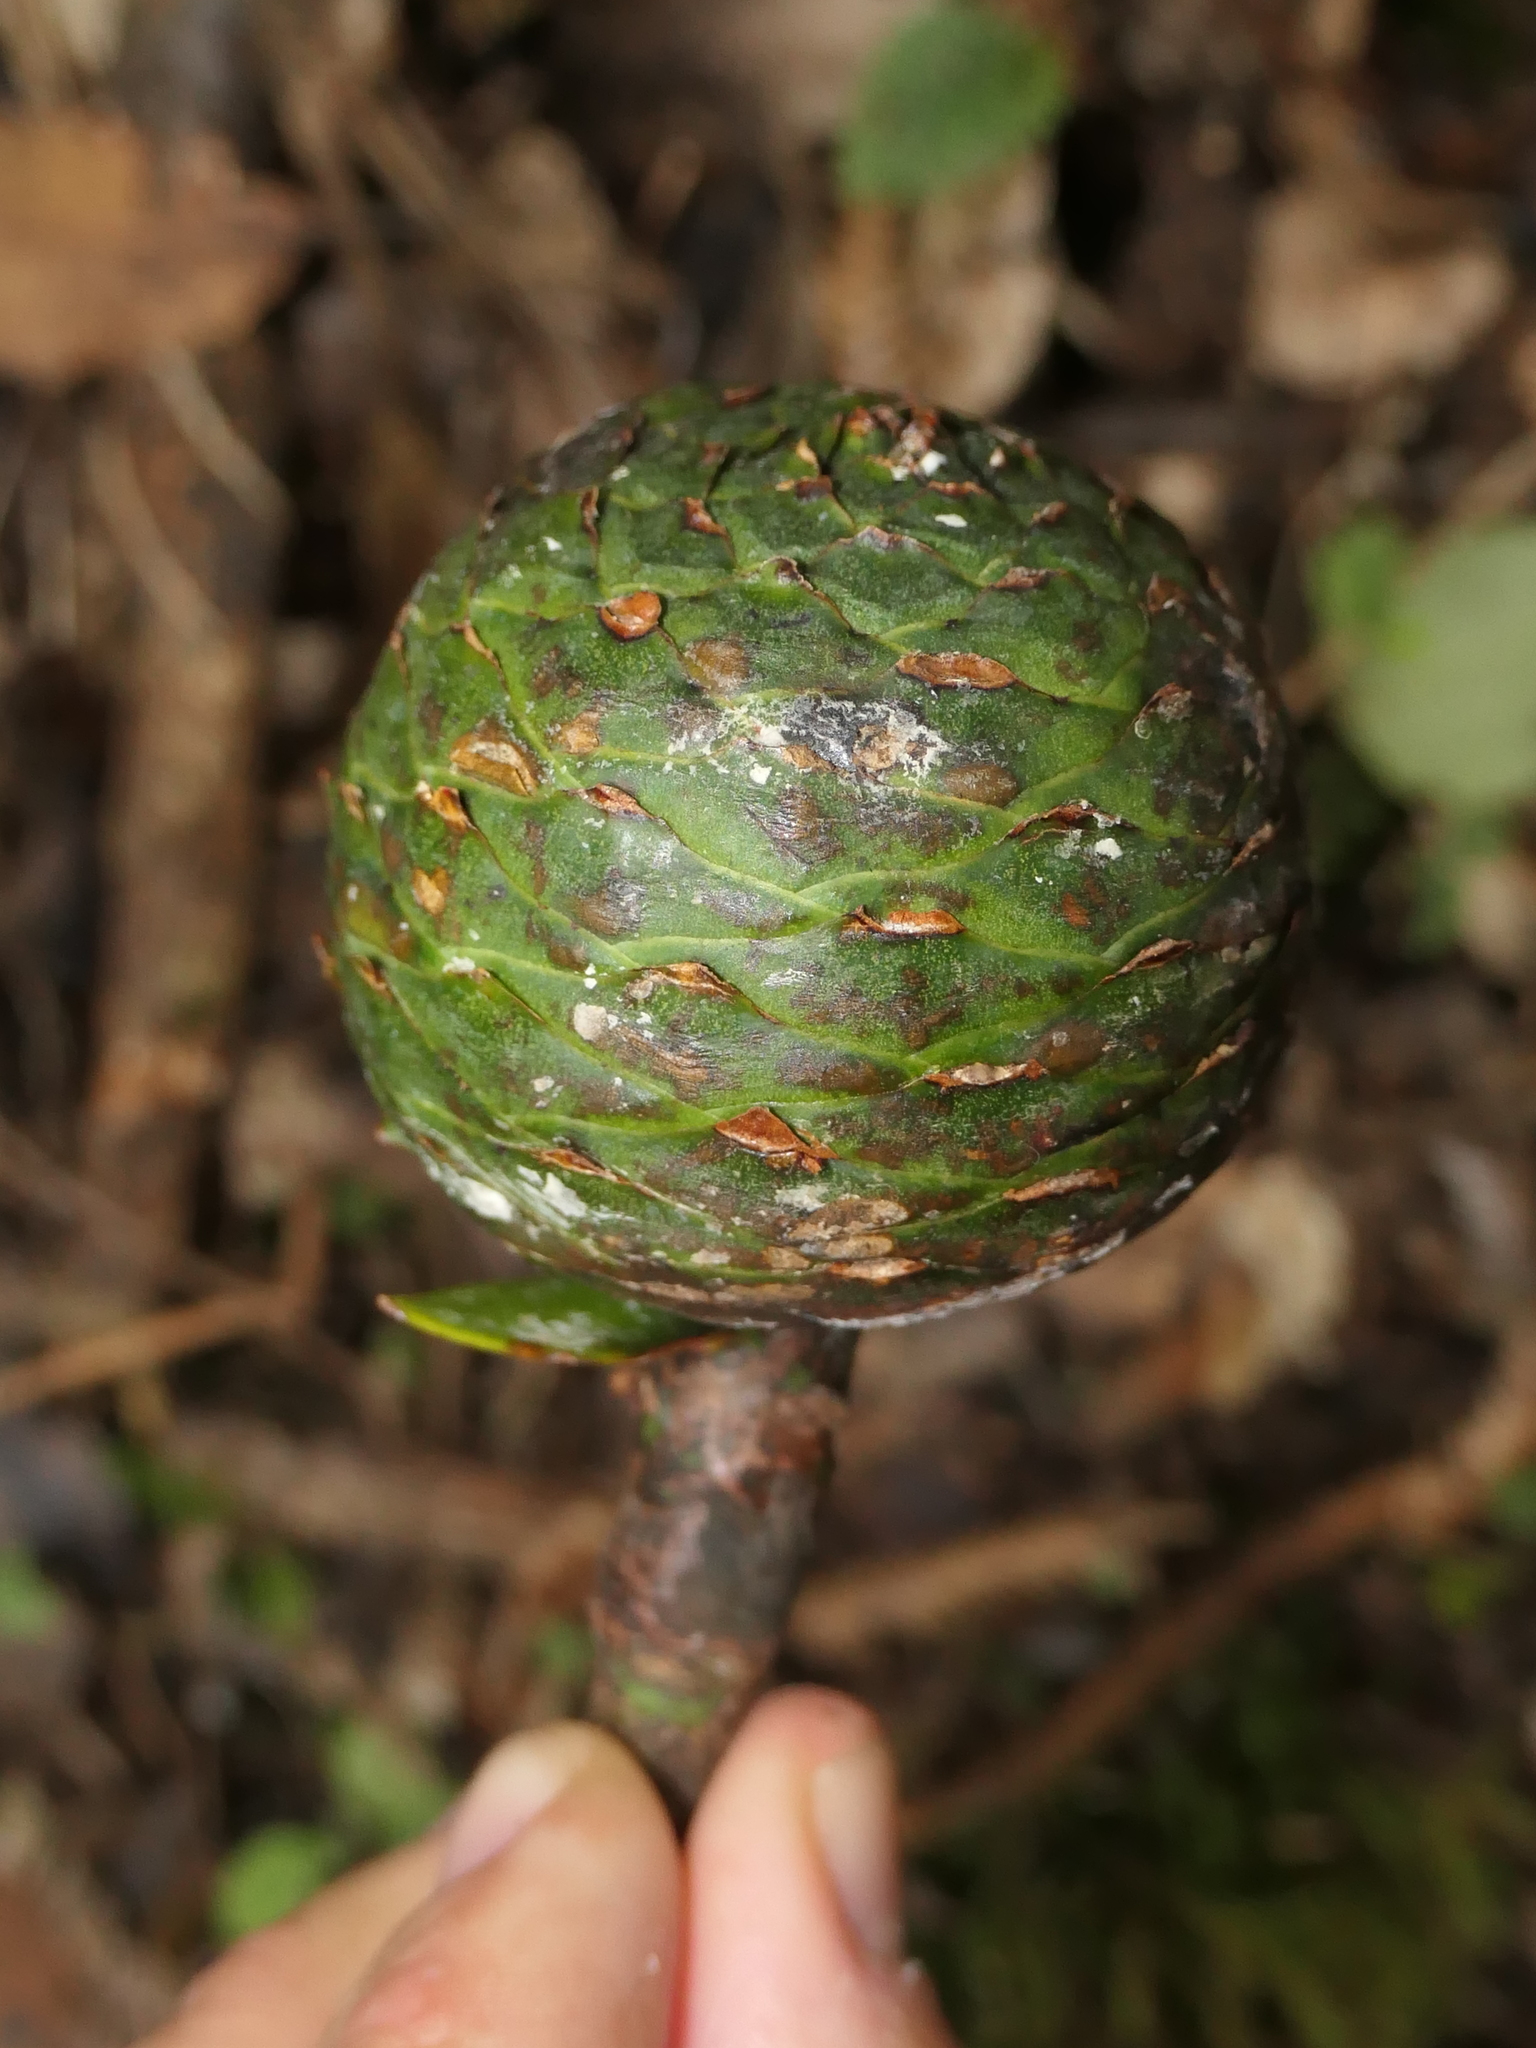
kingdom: Plantae
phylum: Tracheophyta
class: Pinopsida
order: Pinales
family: Araucariaceae
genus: Agathis
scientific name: Agathis australis
